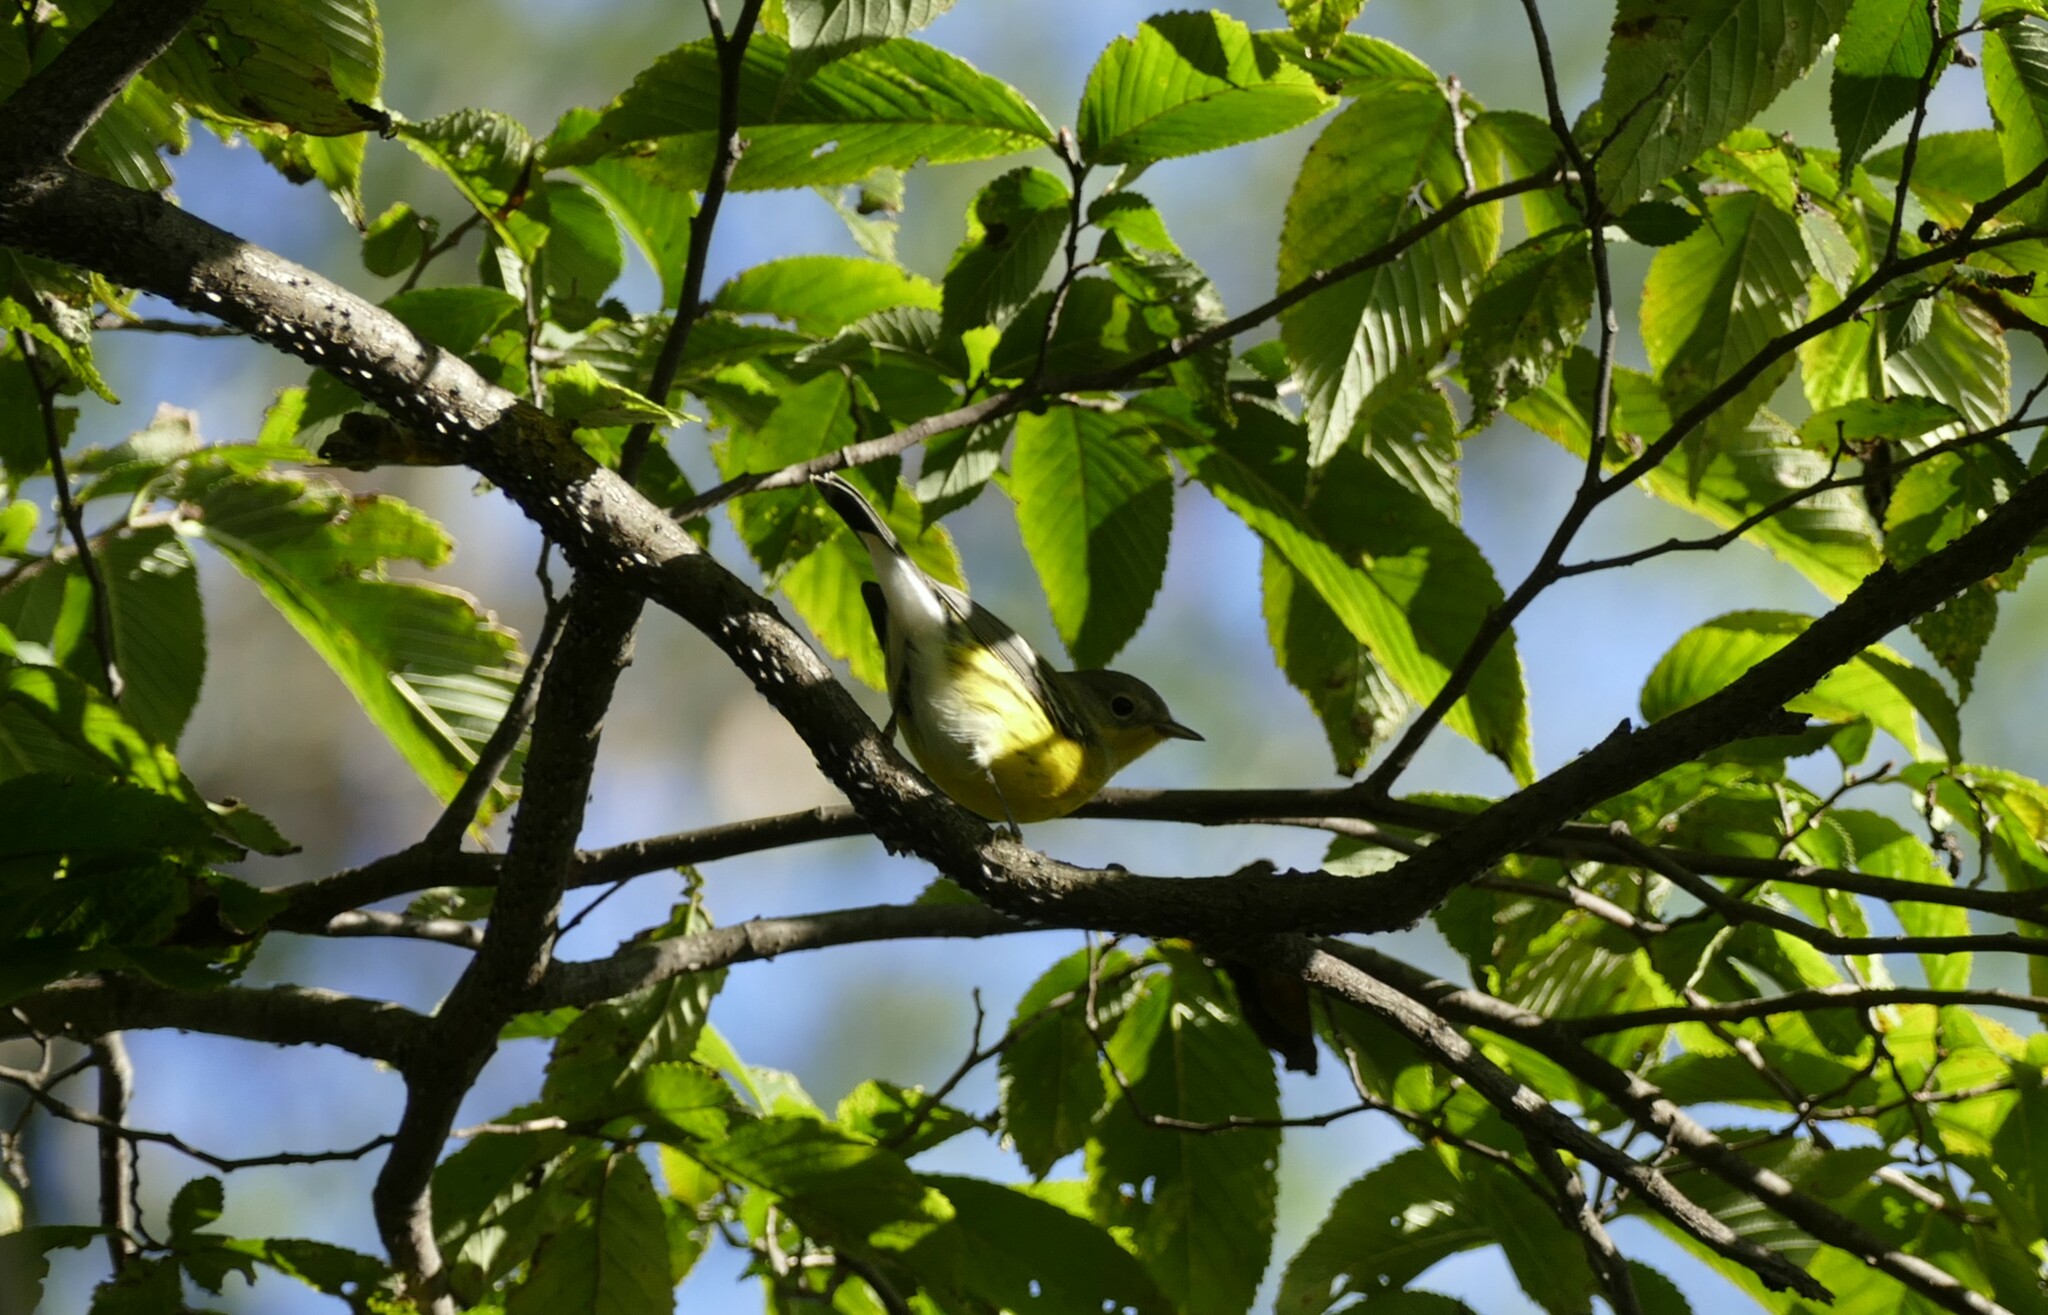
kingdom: Animalia
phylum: Chordata
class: Aves
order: Passeriformes
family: Parulidae
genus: Setophaga
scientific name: Setophaga magnolia
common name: Magnolia warbler
